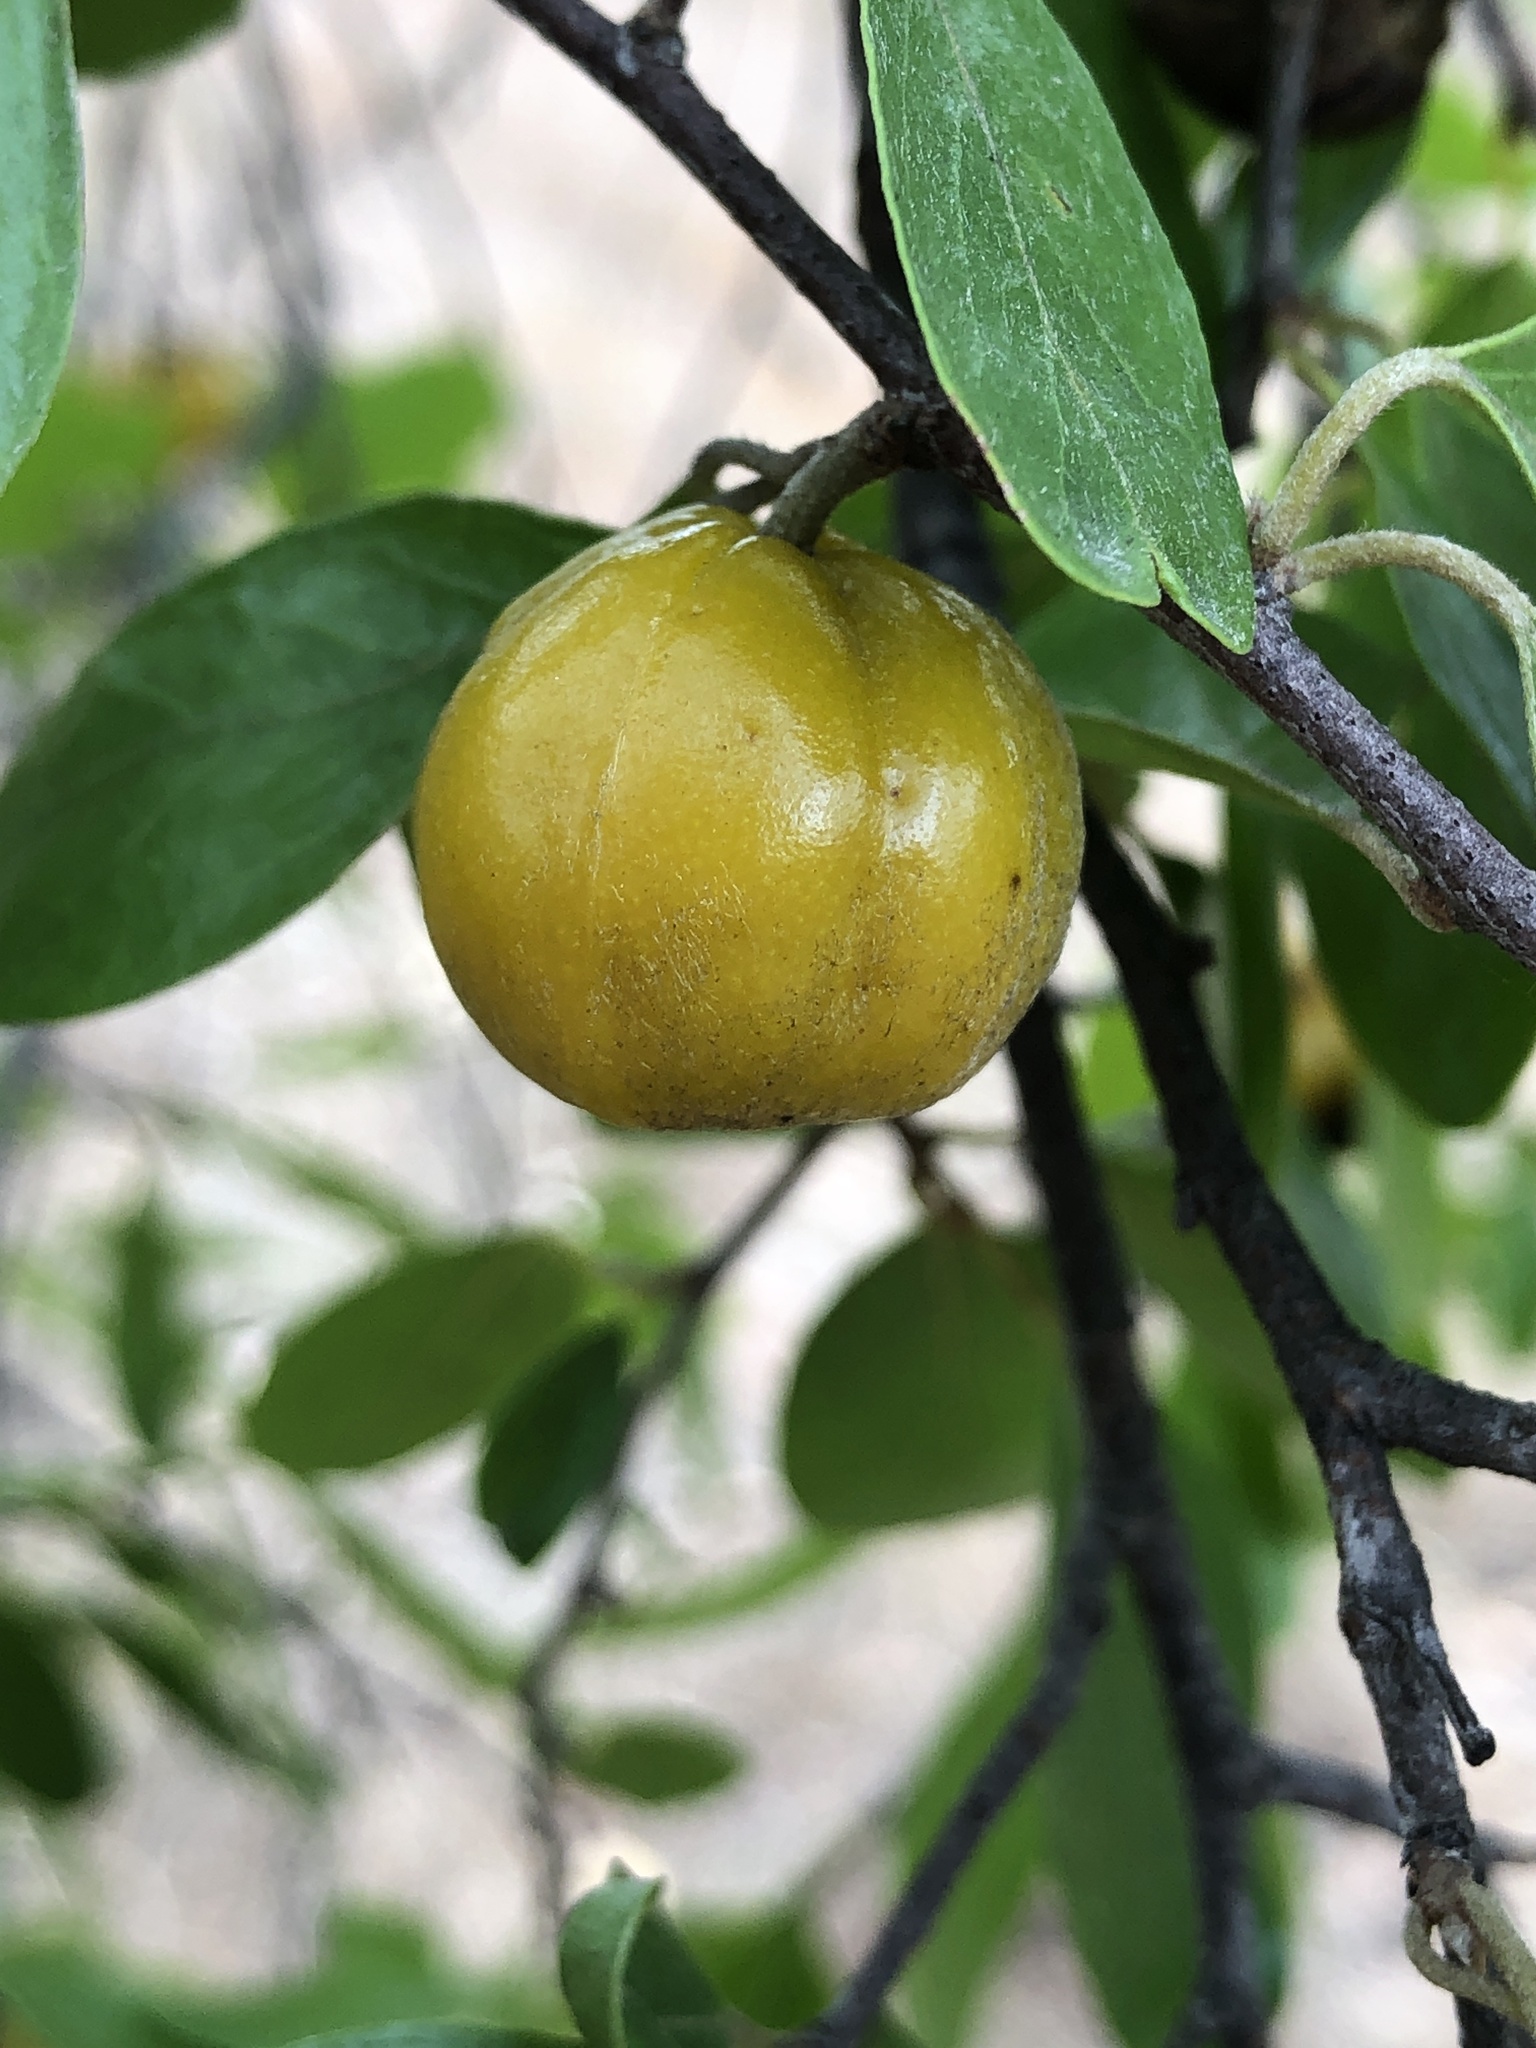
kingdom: Plantae
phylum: Tracheophyta
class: Magnoliopsida
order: Malpighiales
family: Picrodendraceae
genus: Petalostigma
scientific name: Petalostigma banksii
